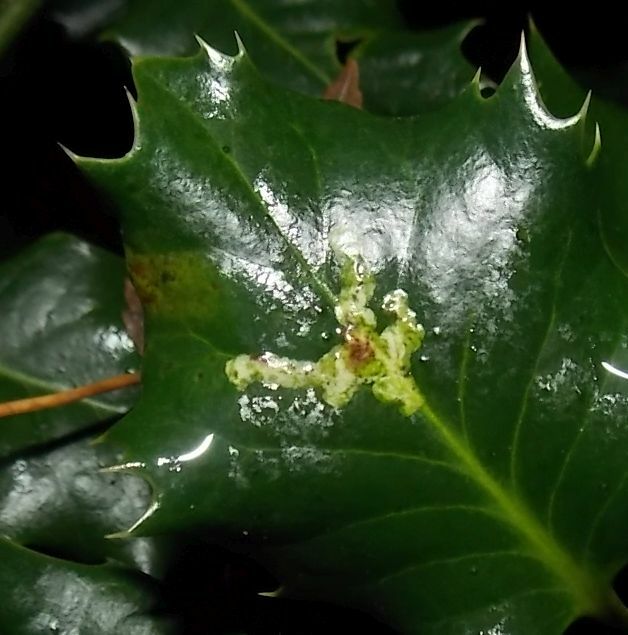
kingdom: Animalia
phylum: Arthropoda
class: Insecta
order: Diptera
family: Agromyzidae
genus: Phytomyza
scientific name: Phytomyza ilicis
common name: Holly leafminer
